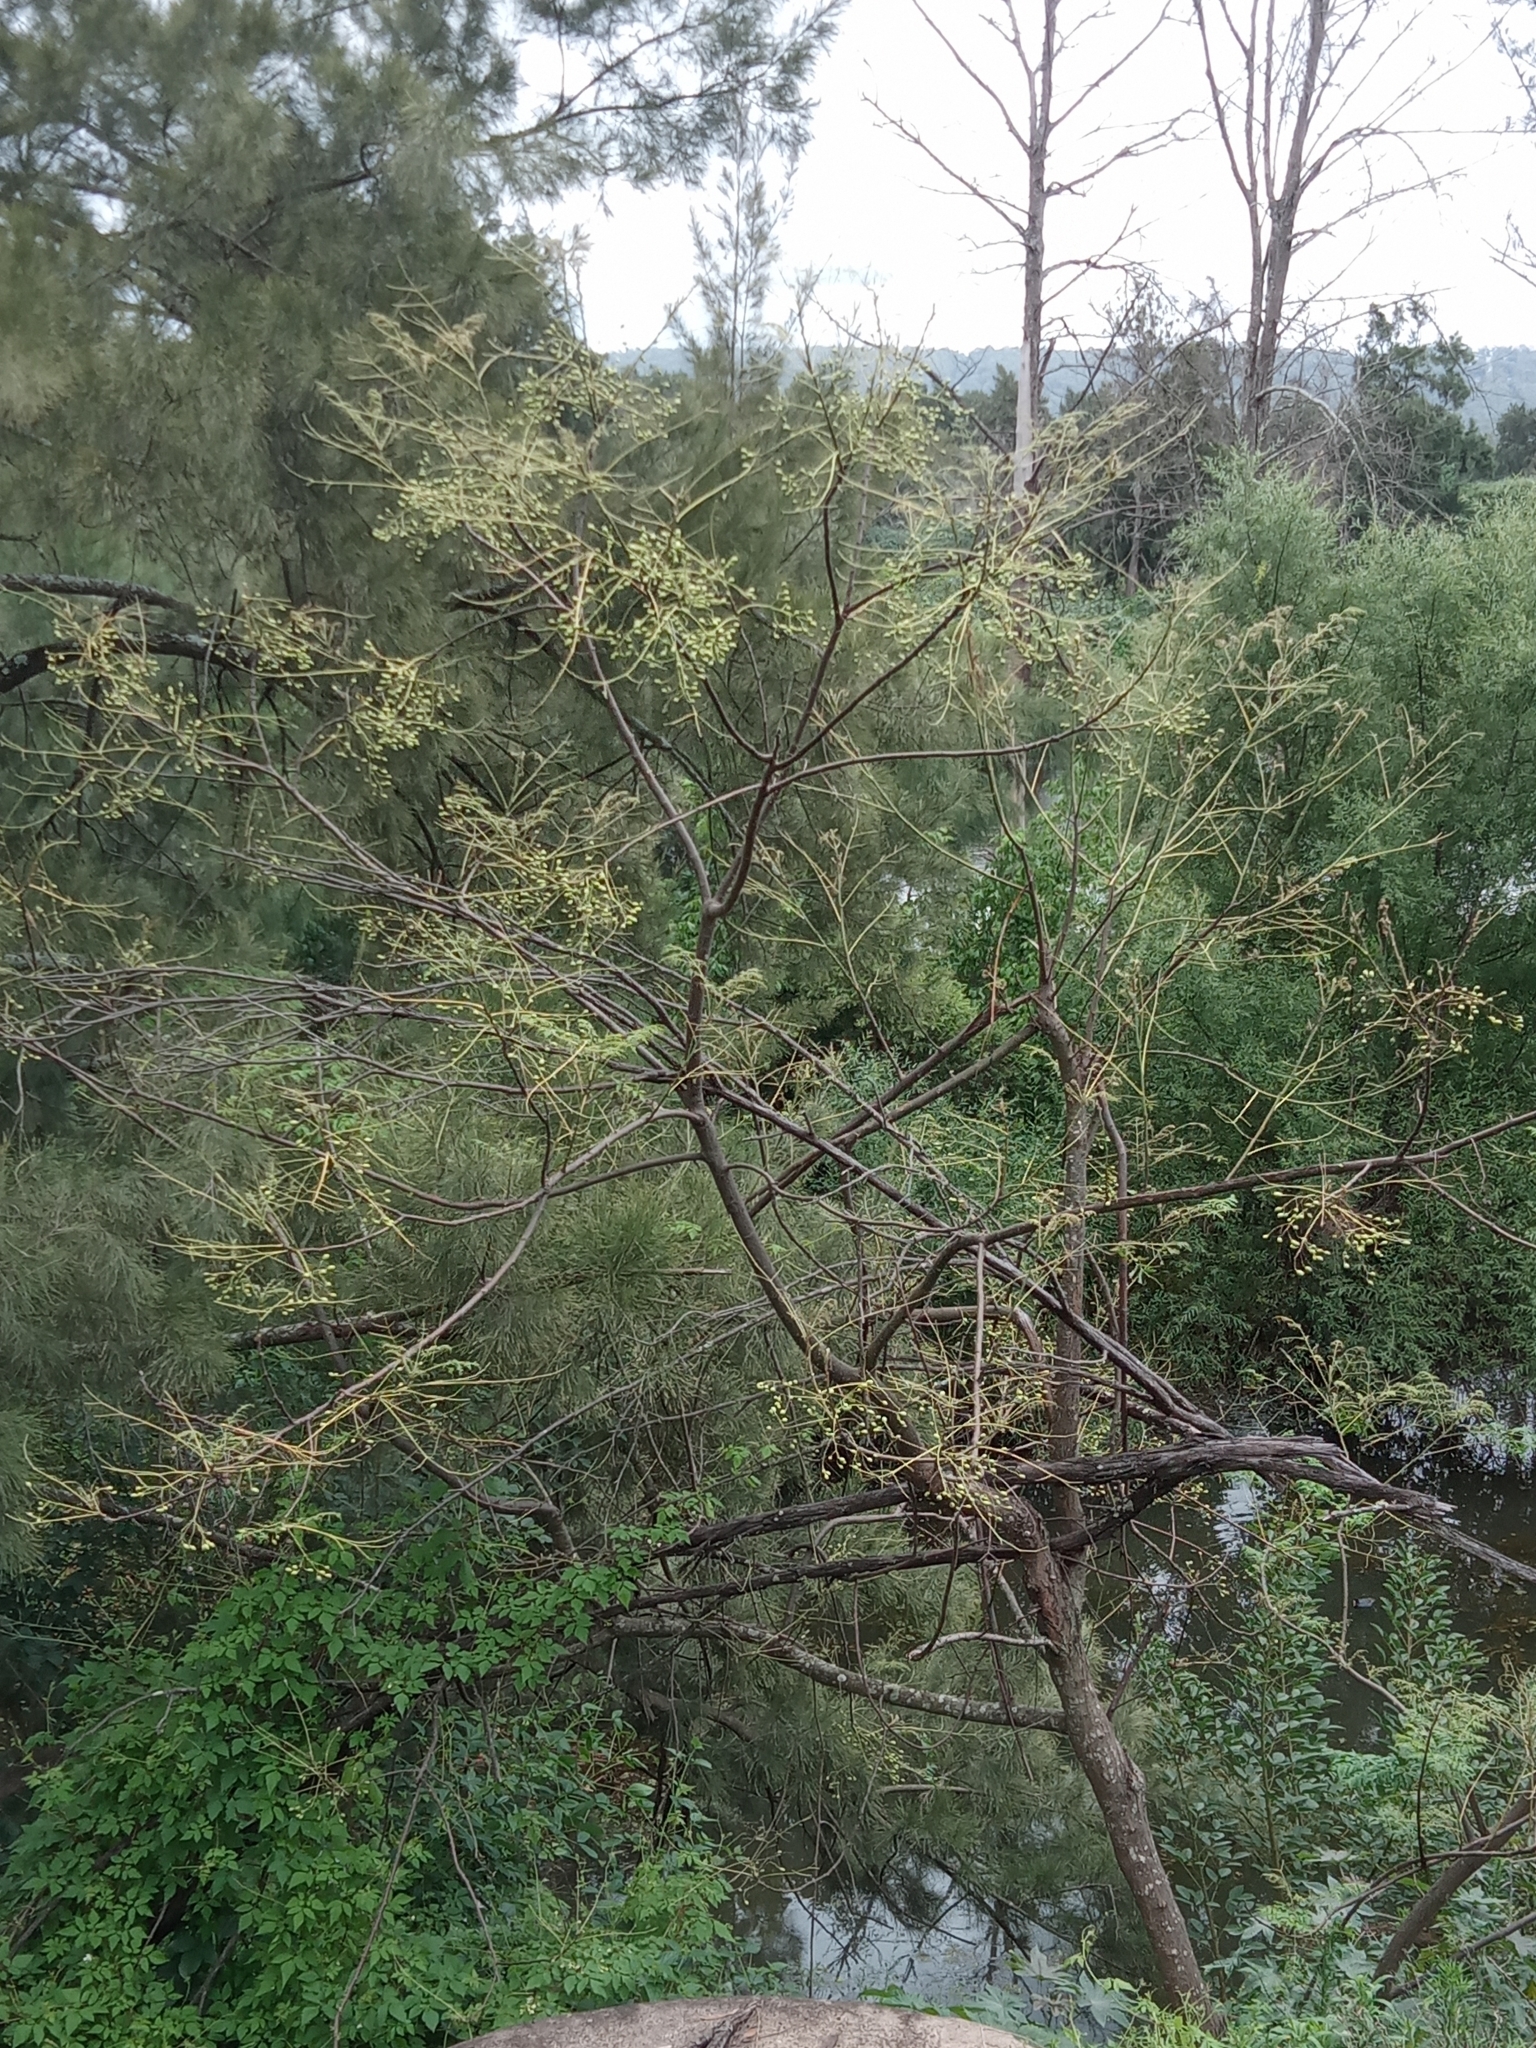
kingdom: Plantae
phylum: Tracheophyta
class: Magnoliopsida
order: Sapindales
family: Meliaceae
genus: Melia
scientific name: Melia azedarach
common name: Chinaberrytree
